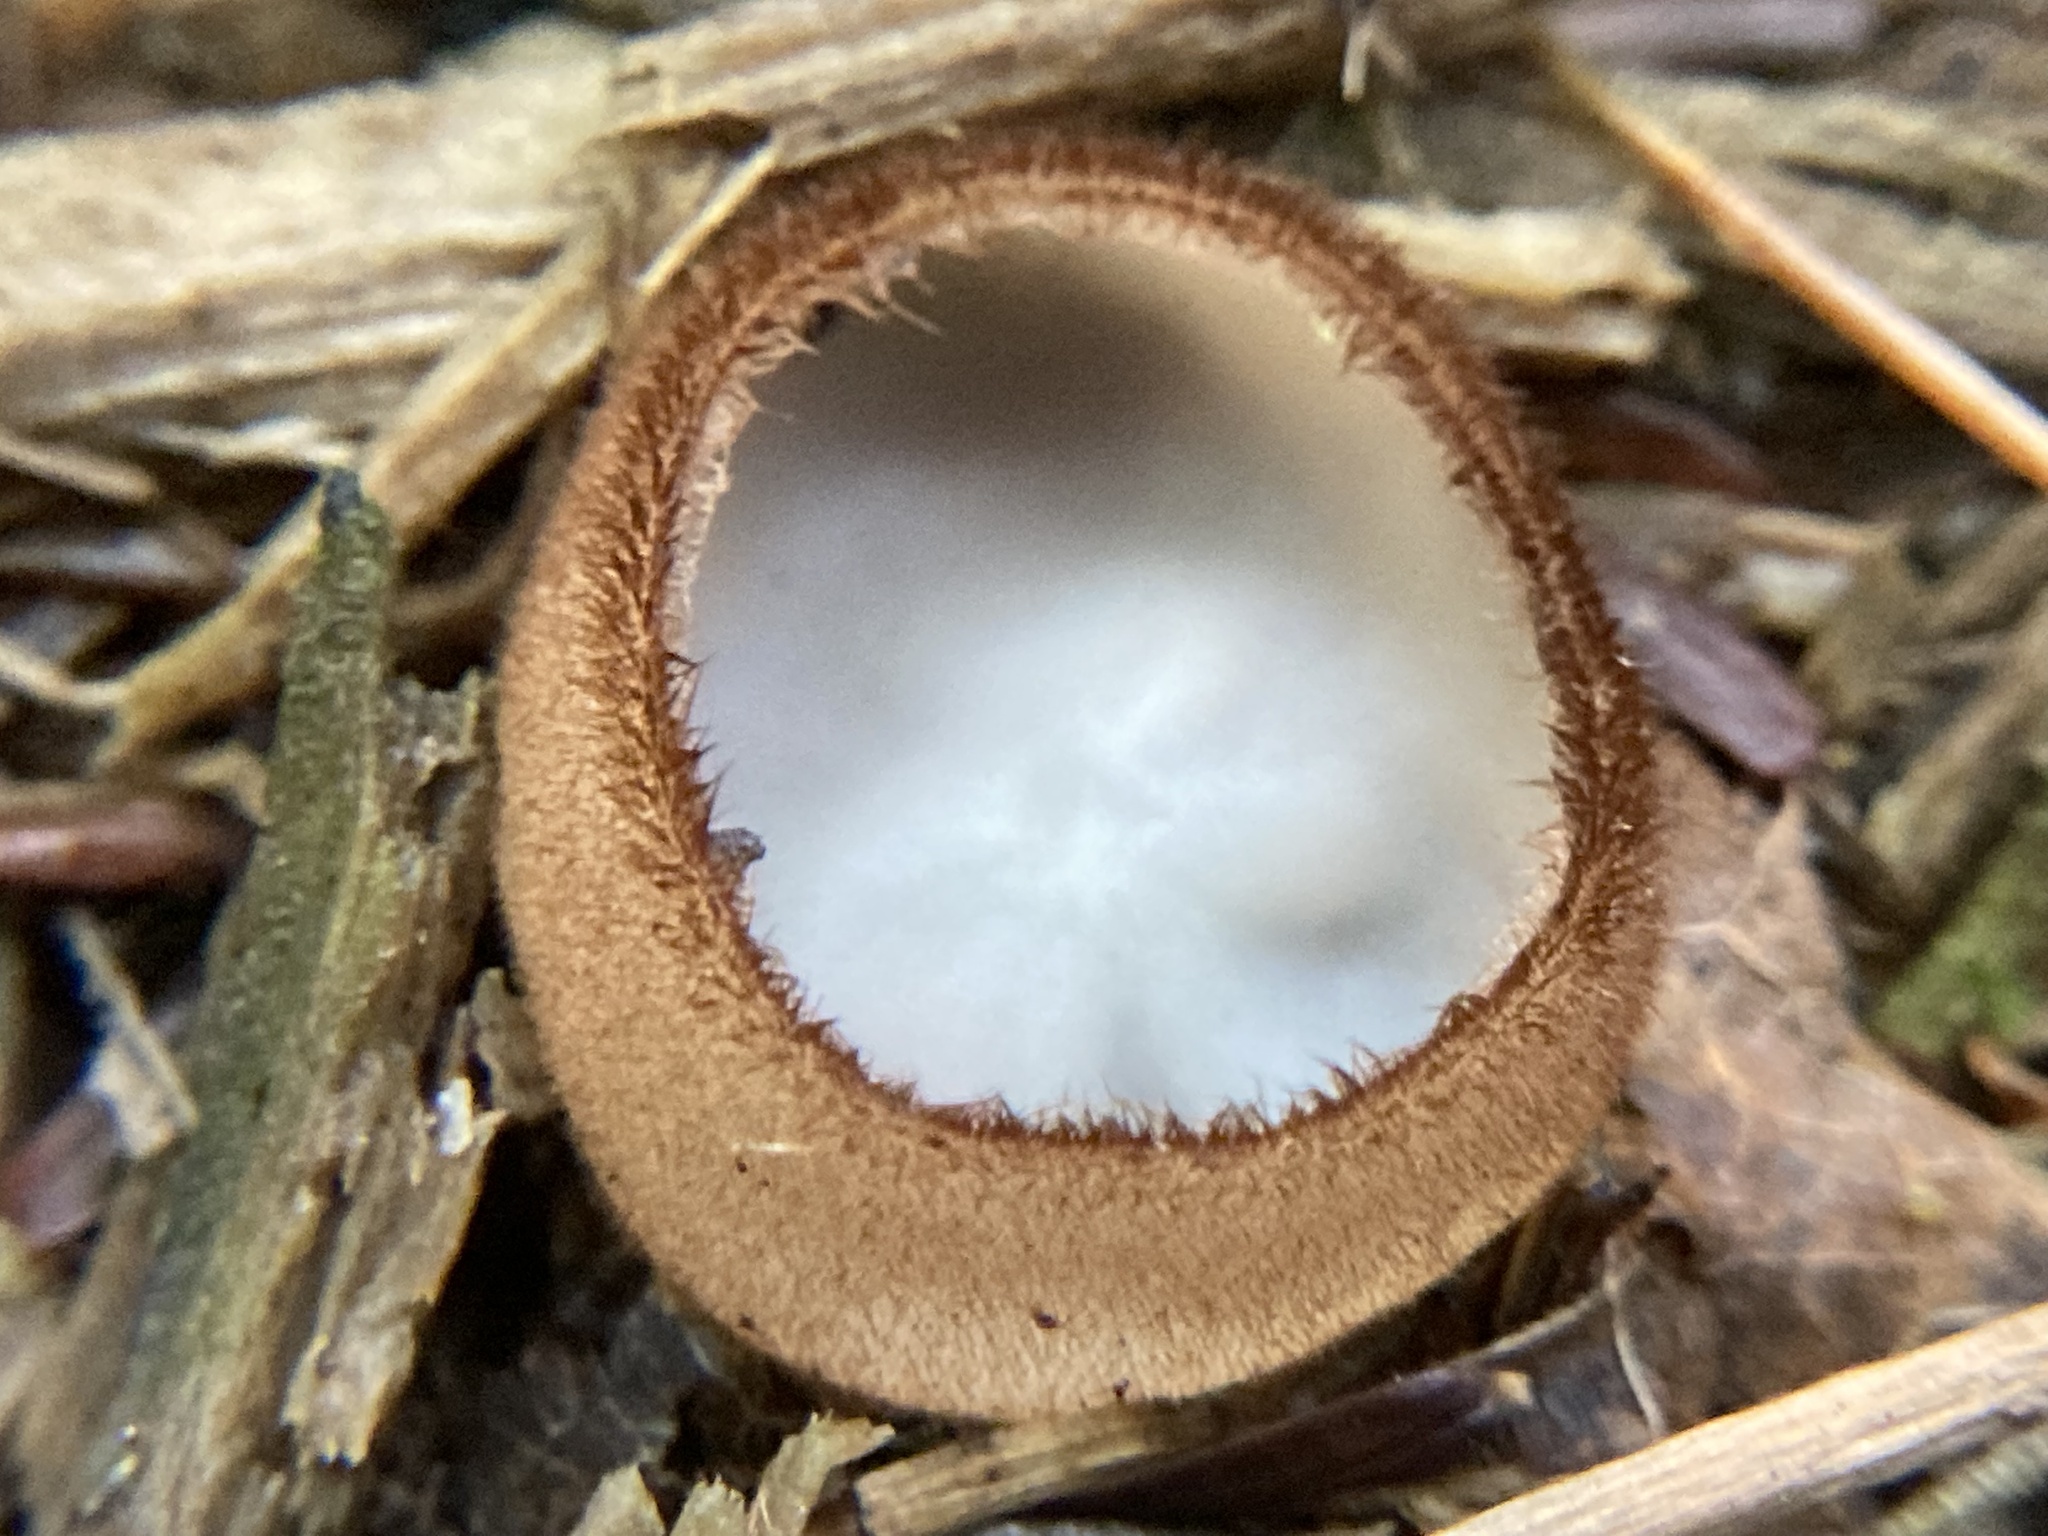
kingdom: Fungi
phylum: Ascomycota
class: Pezizomycetes
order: Pezizales
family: Pyronemataceae
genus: Humaria
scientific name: Humaria hemisphaerica
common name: Glazed cup
